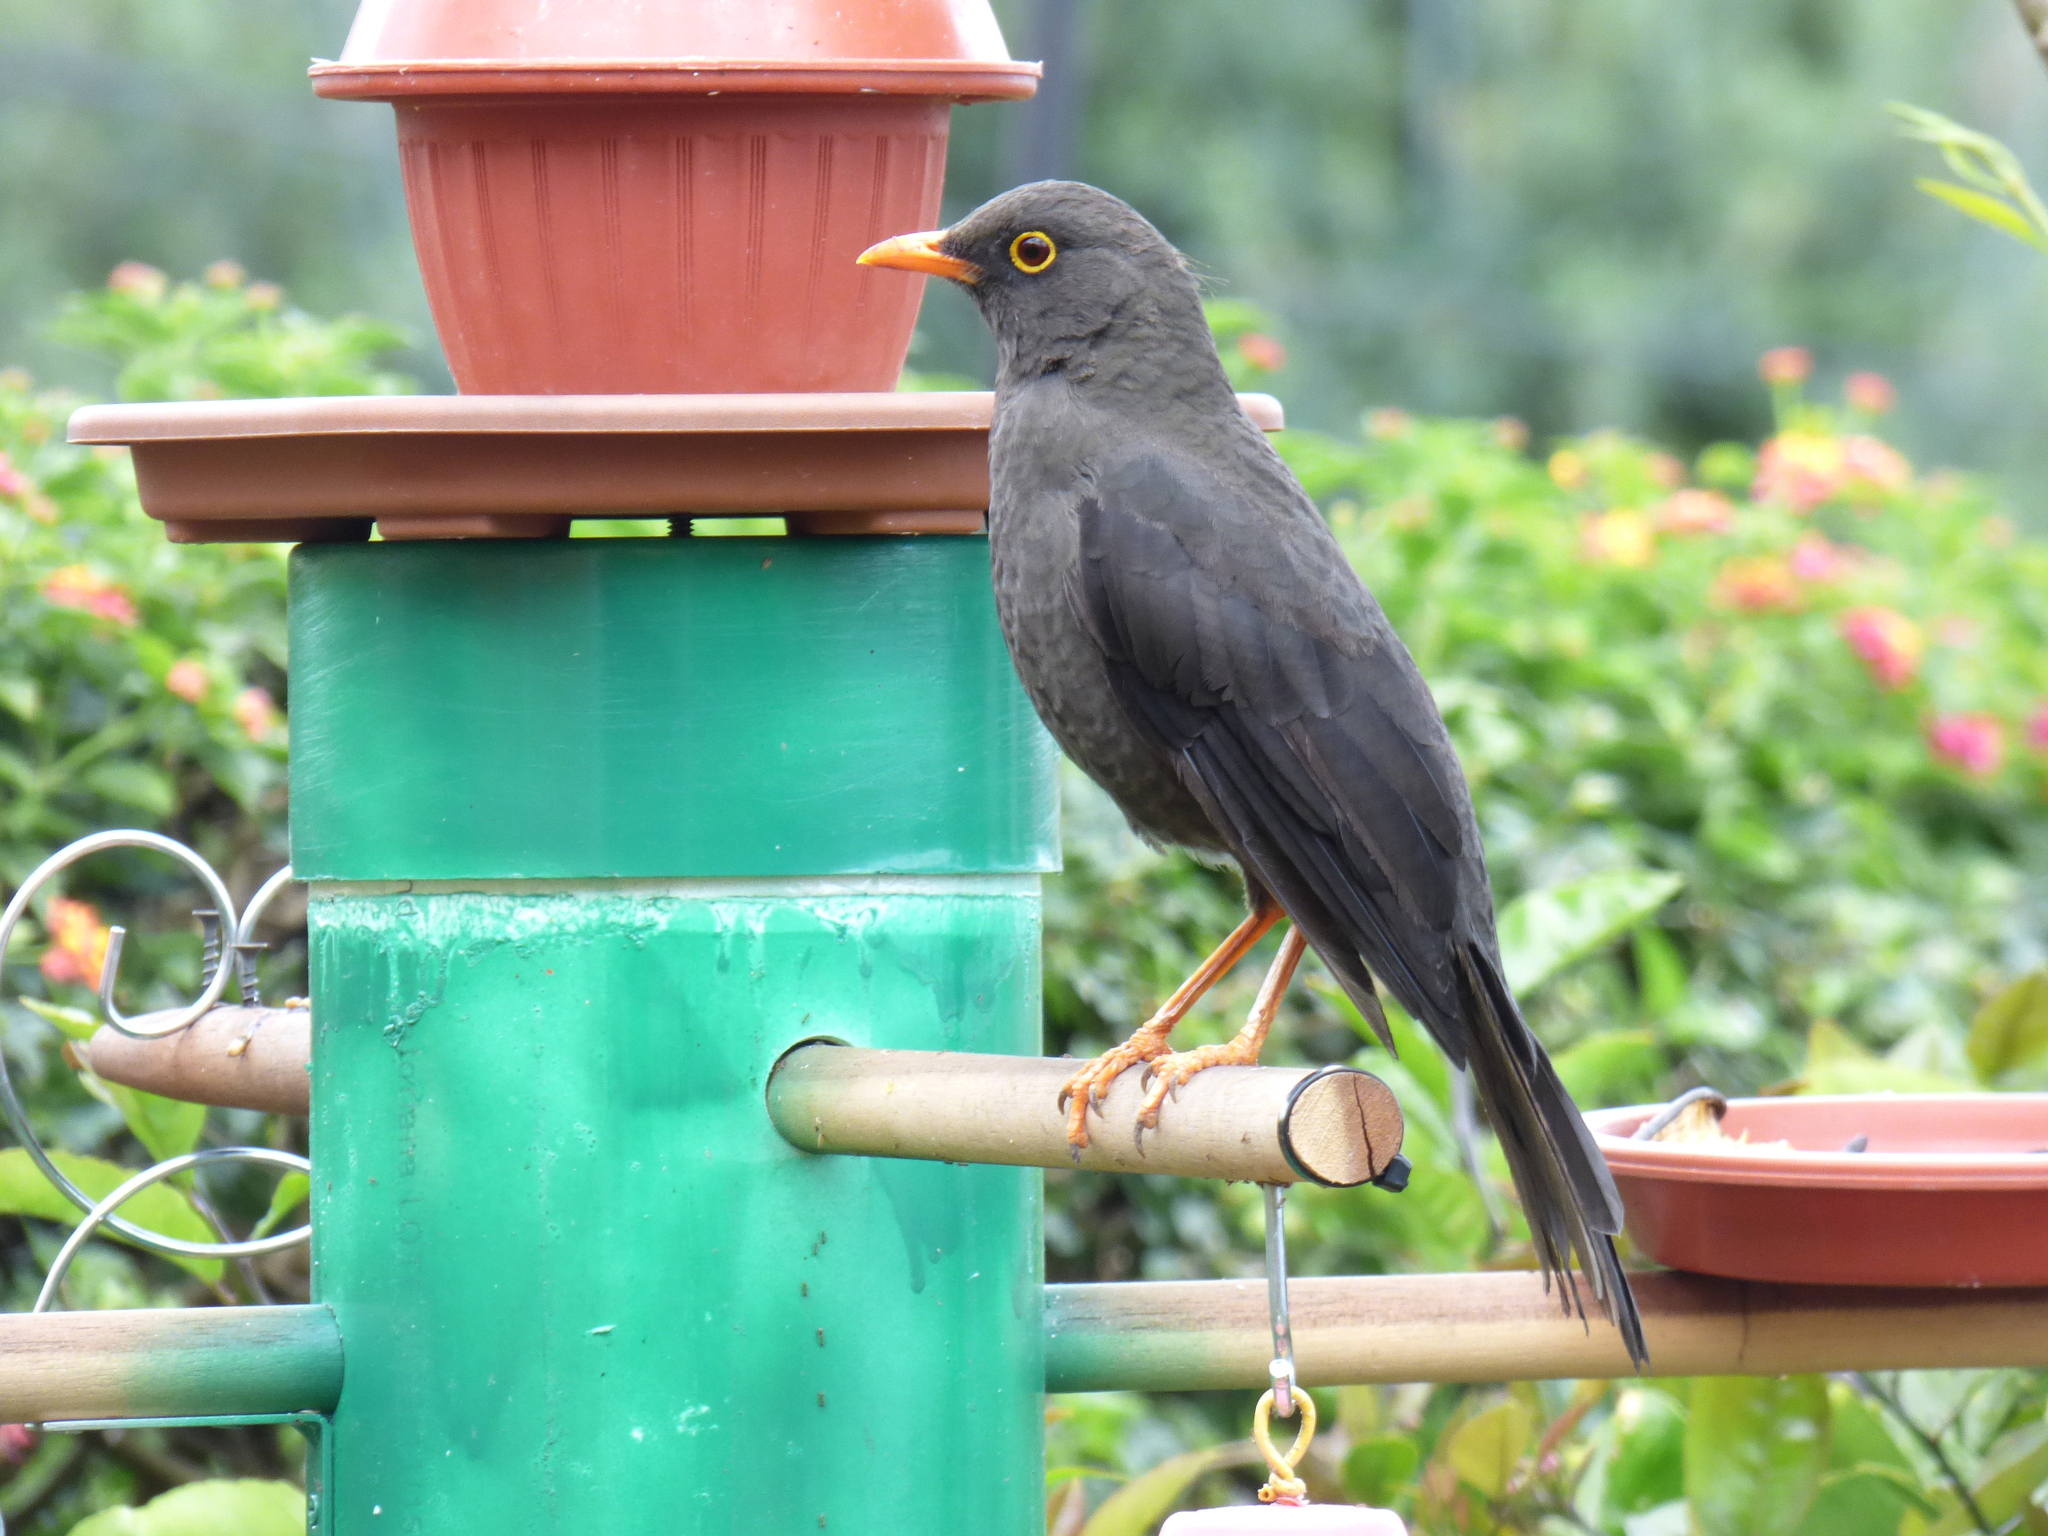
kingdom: Animalia
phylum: Chordata
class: Aves
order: Passeriformes
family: Turdidae
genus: Turdus
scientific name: Turdus fuscater
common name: Great thrush
